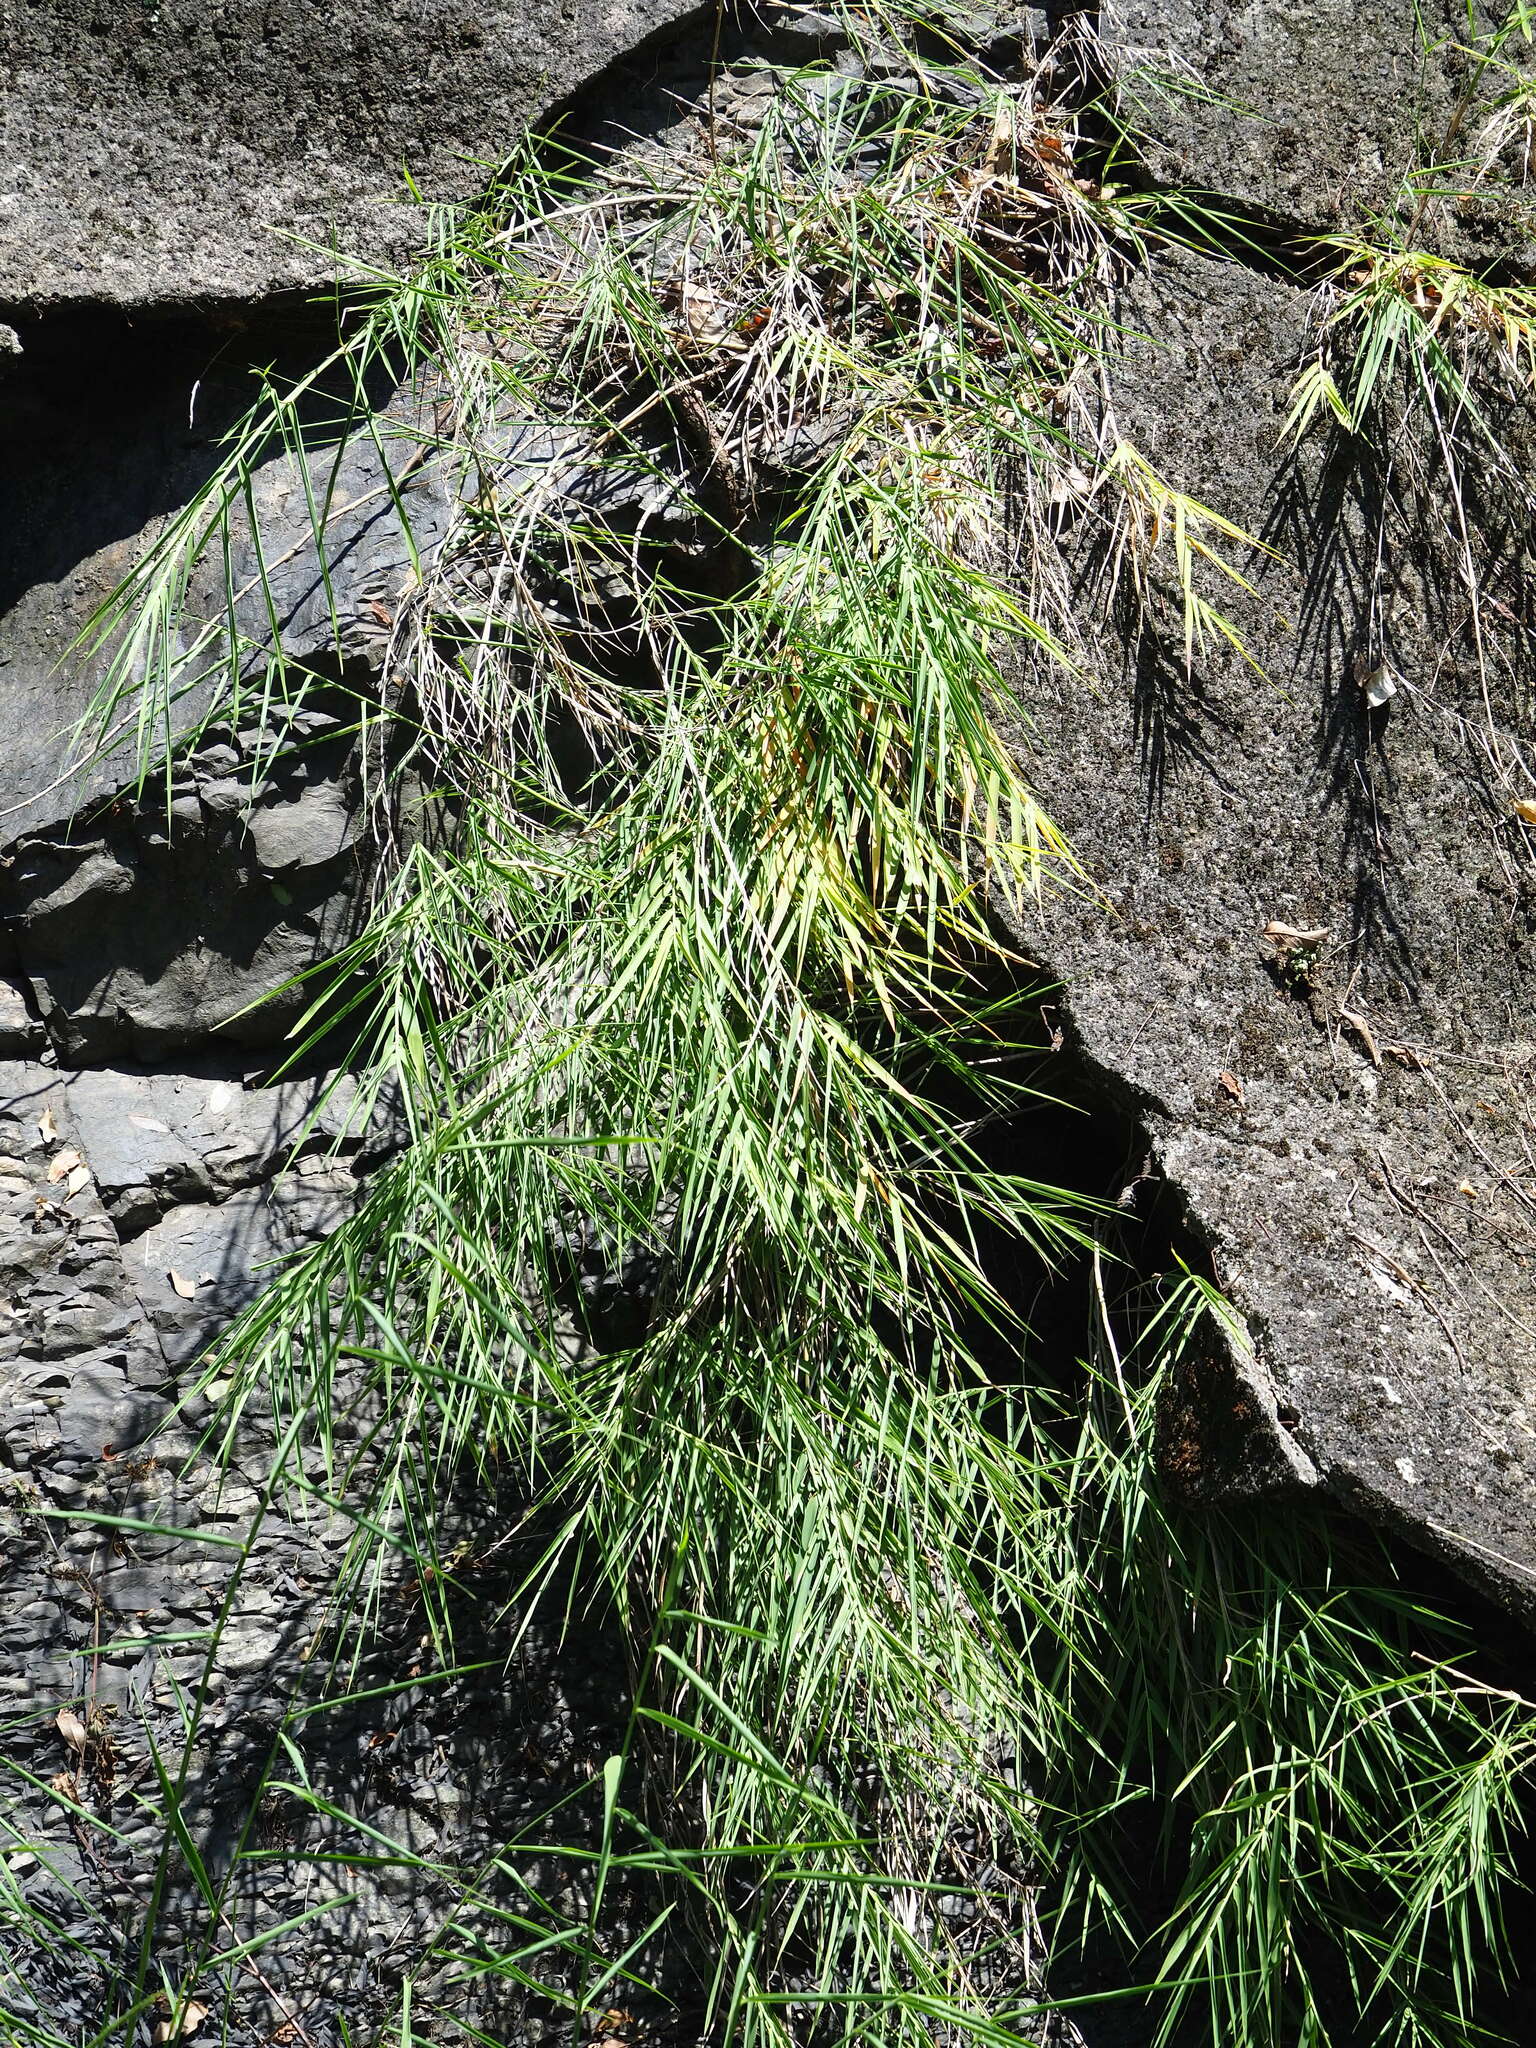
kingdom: Plantae
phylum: Tracheophyta
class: Liliopsida
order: Poales
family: Poaceae
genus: Arundo
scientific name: Arundo formosana
